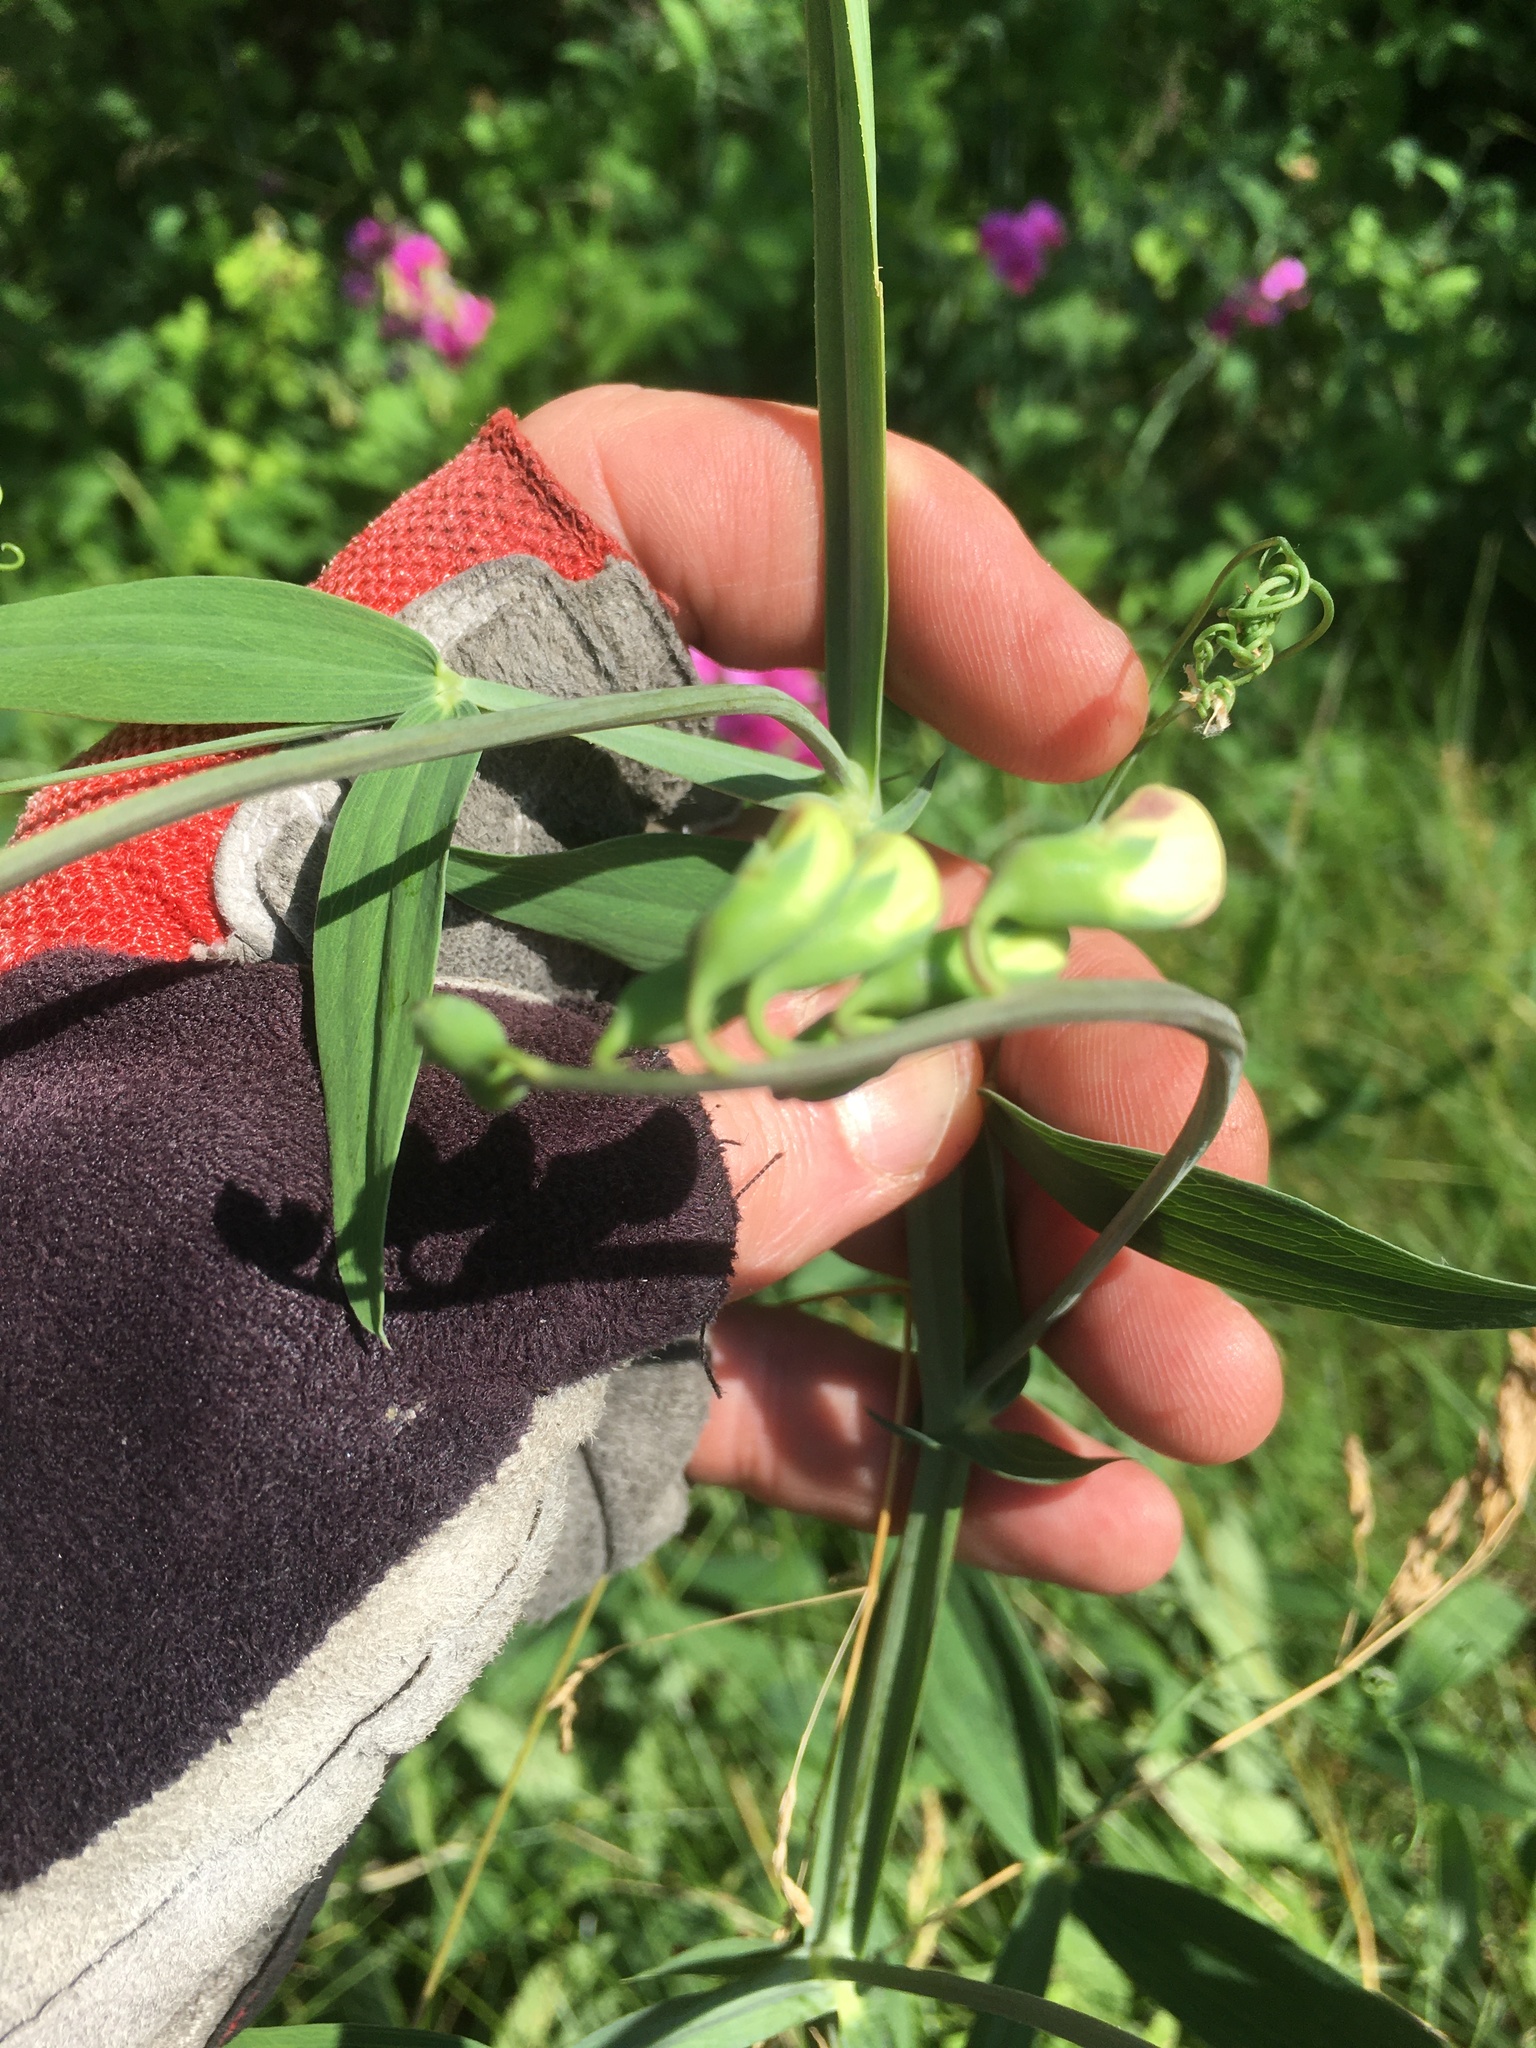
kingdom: Plantae
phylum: Tracheophyta
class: Magnoliopsida
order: Fabales
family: Fabaceae
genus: Lathyrus
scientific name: Lathyrus latifolius
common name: Perennial pea
